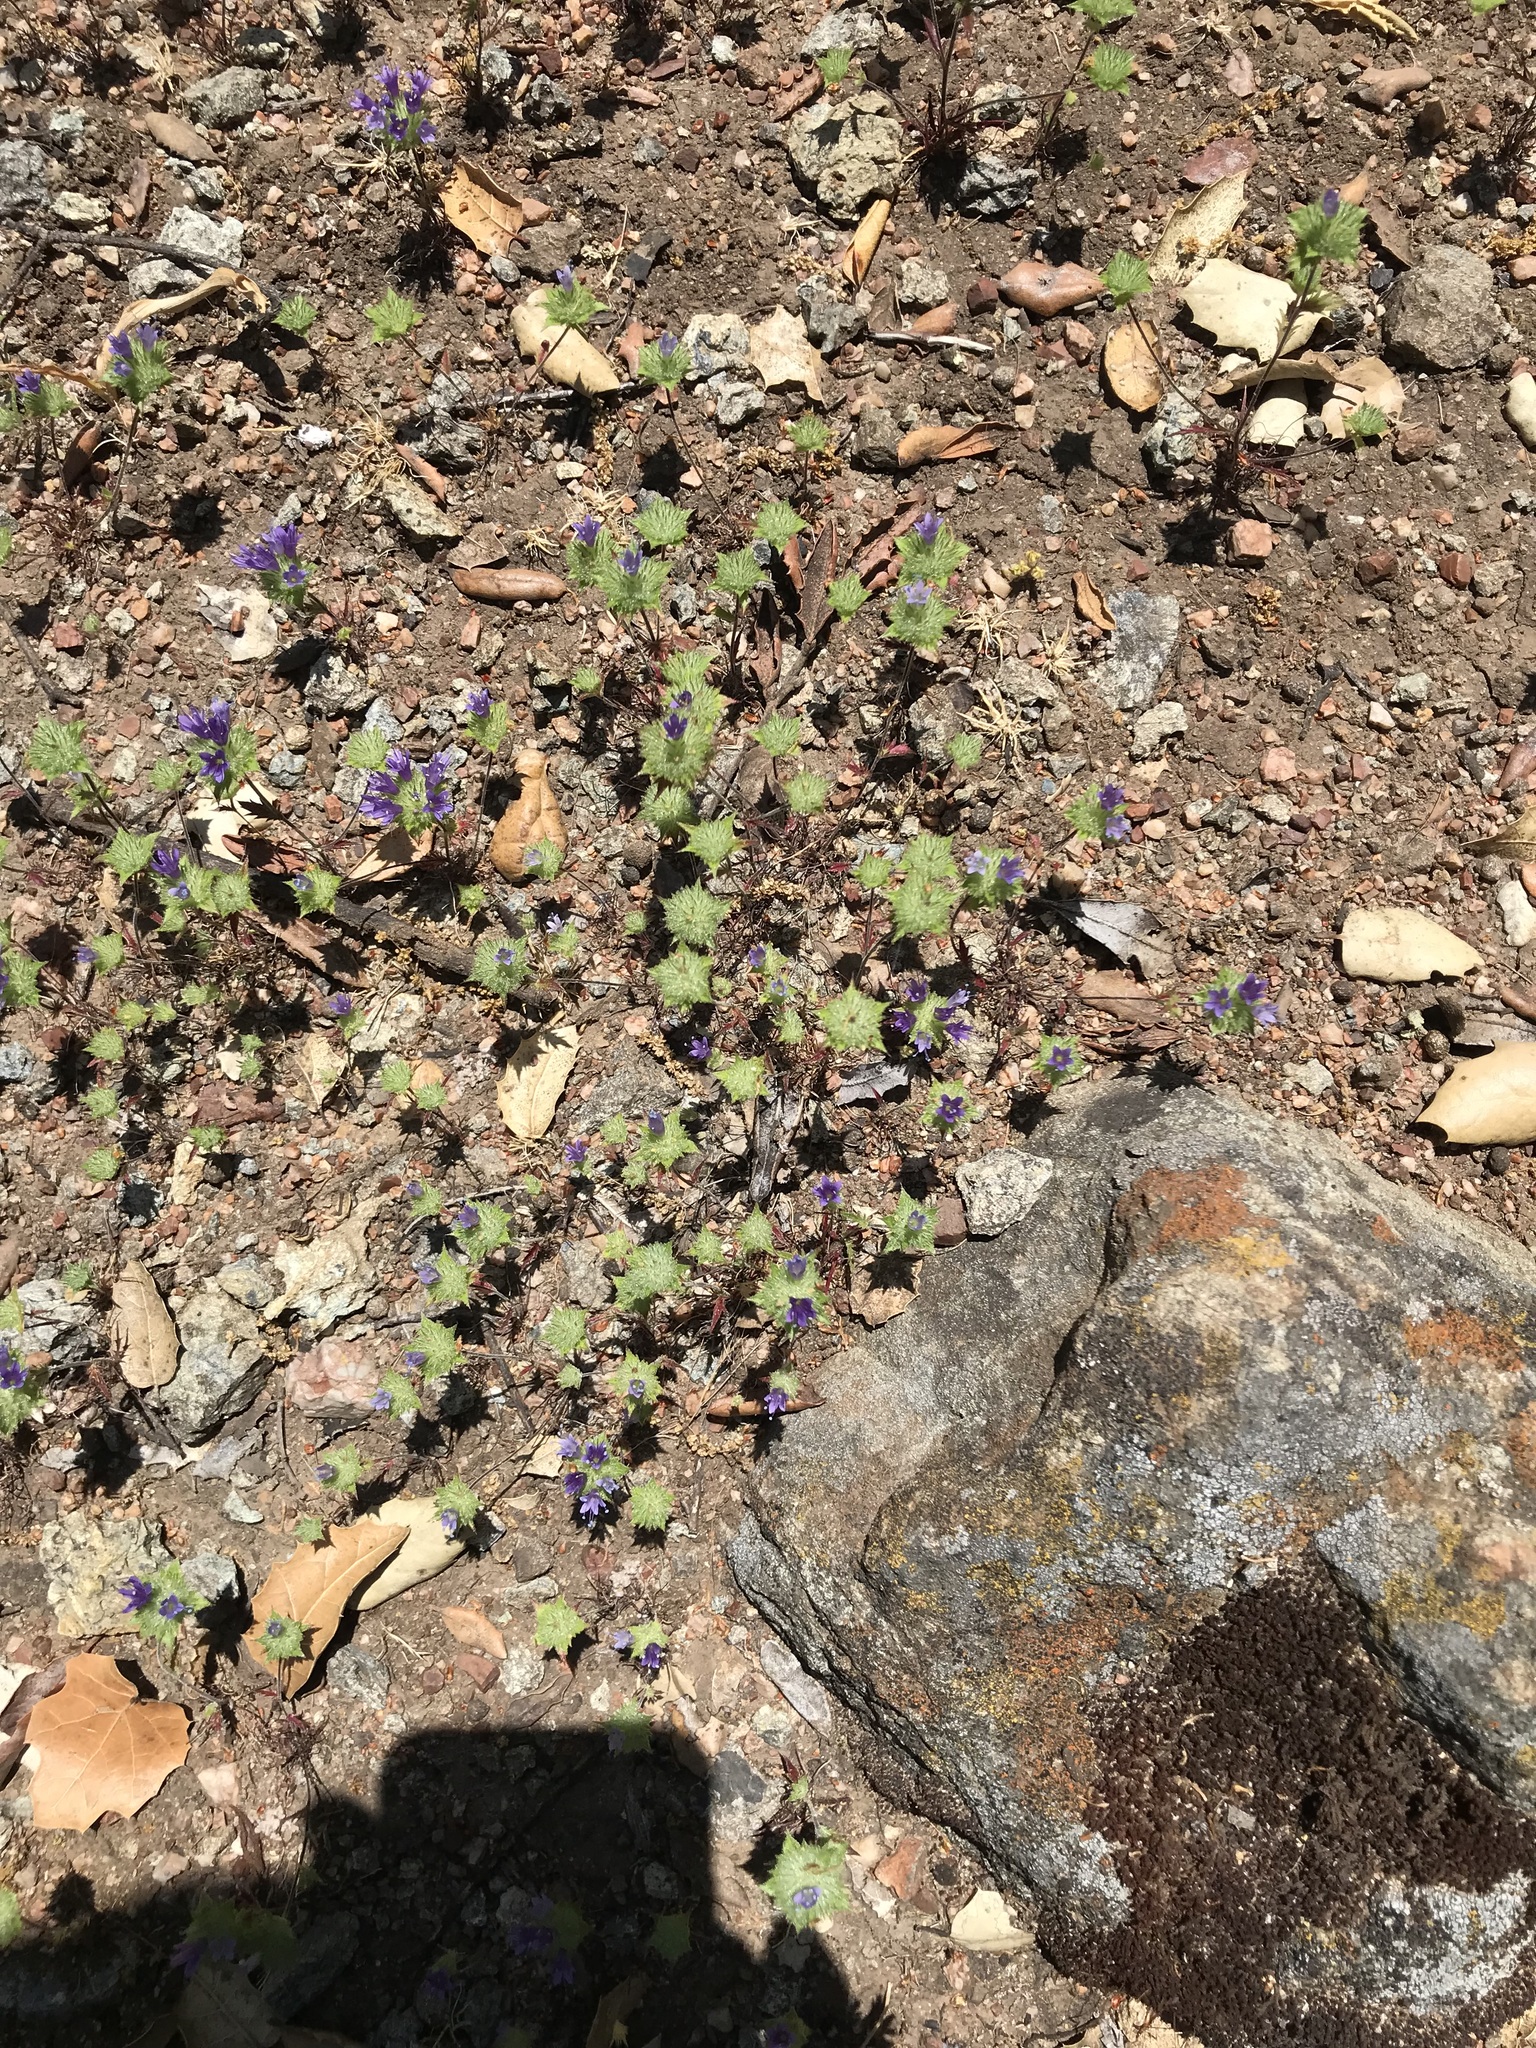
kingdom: Plantae
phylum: Tracheophyta
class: Magnoliopsida
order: Ericales
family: Polemoniaceae
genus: Navarretia
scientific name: Navarretia heterodoxa
